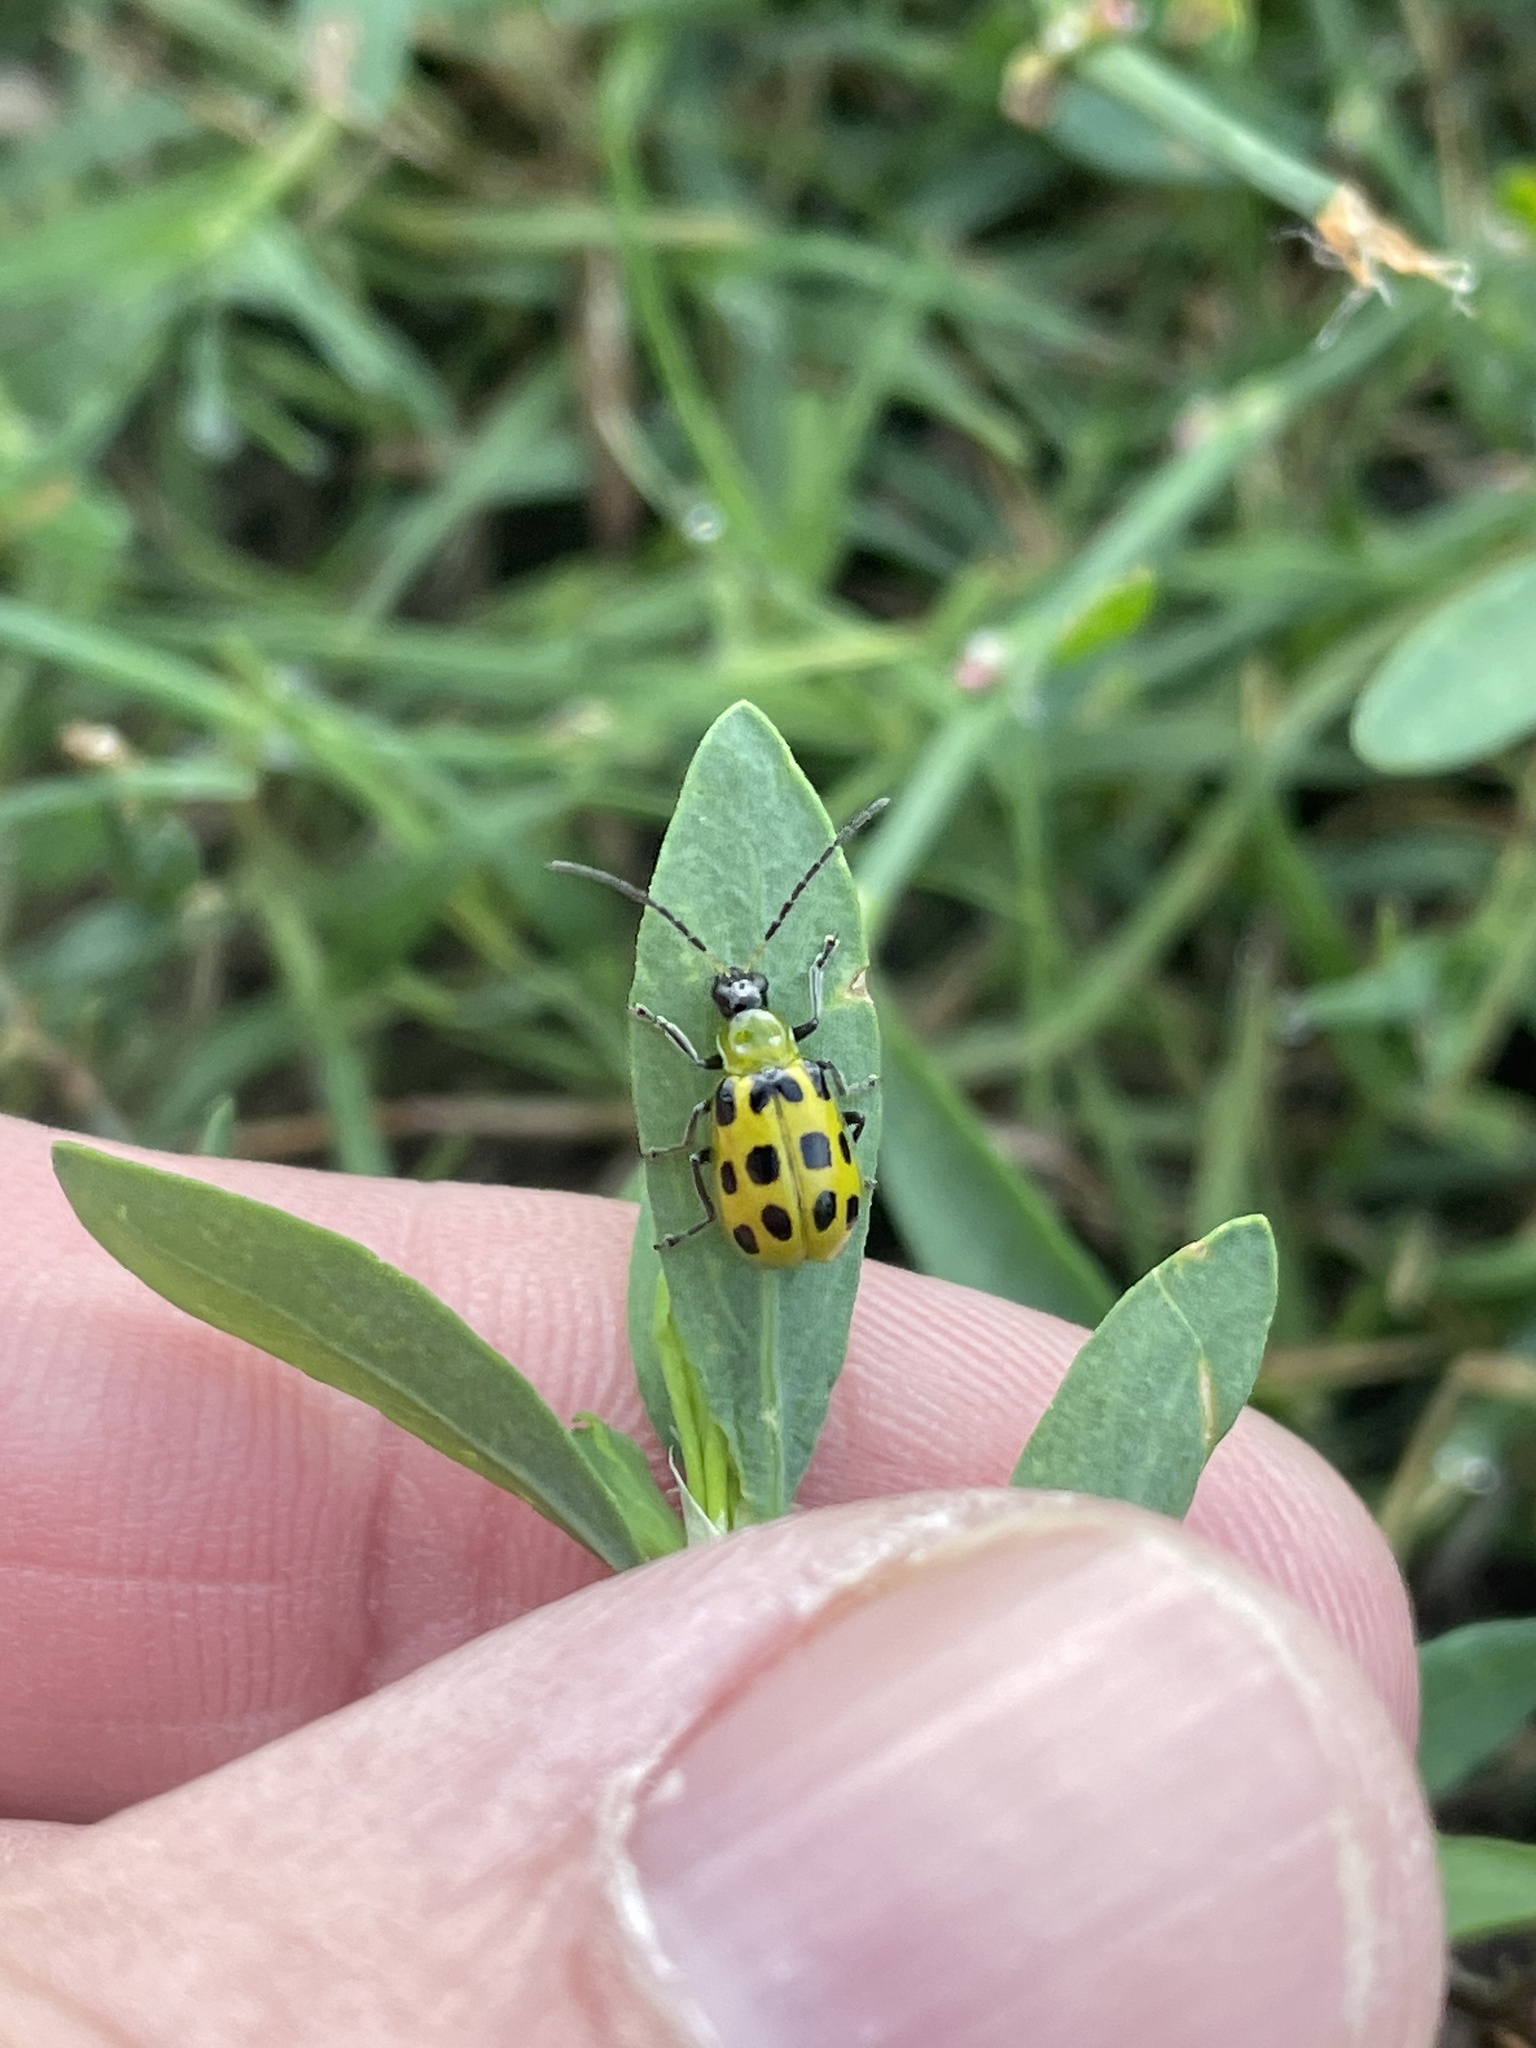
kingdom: Animalia
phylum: Arthropoda
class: Insecta
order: Coleoptera
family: Chrysomelidae
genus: Diabrotica
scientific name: Diabrotica undecimpunctata
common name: Spotted cucumber beetle
